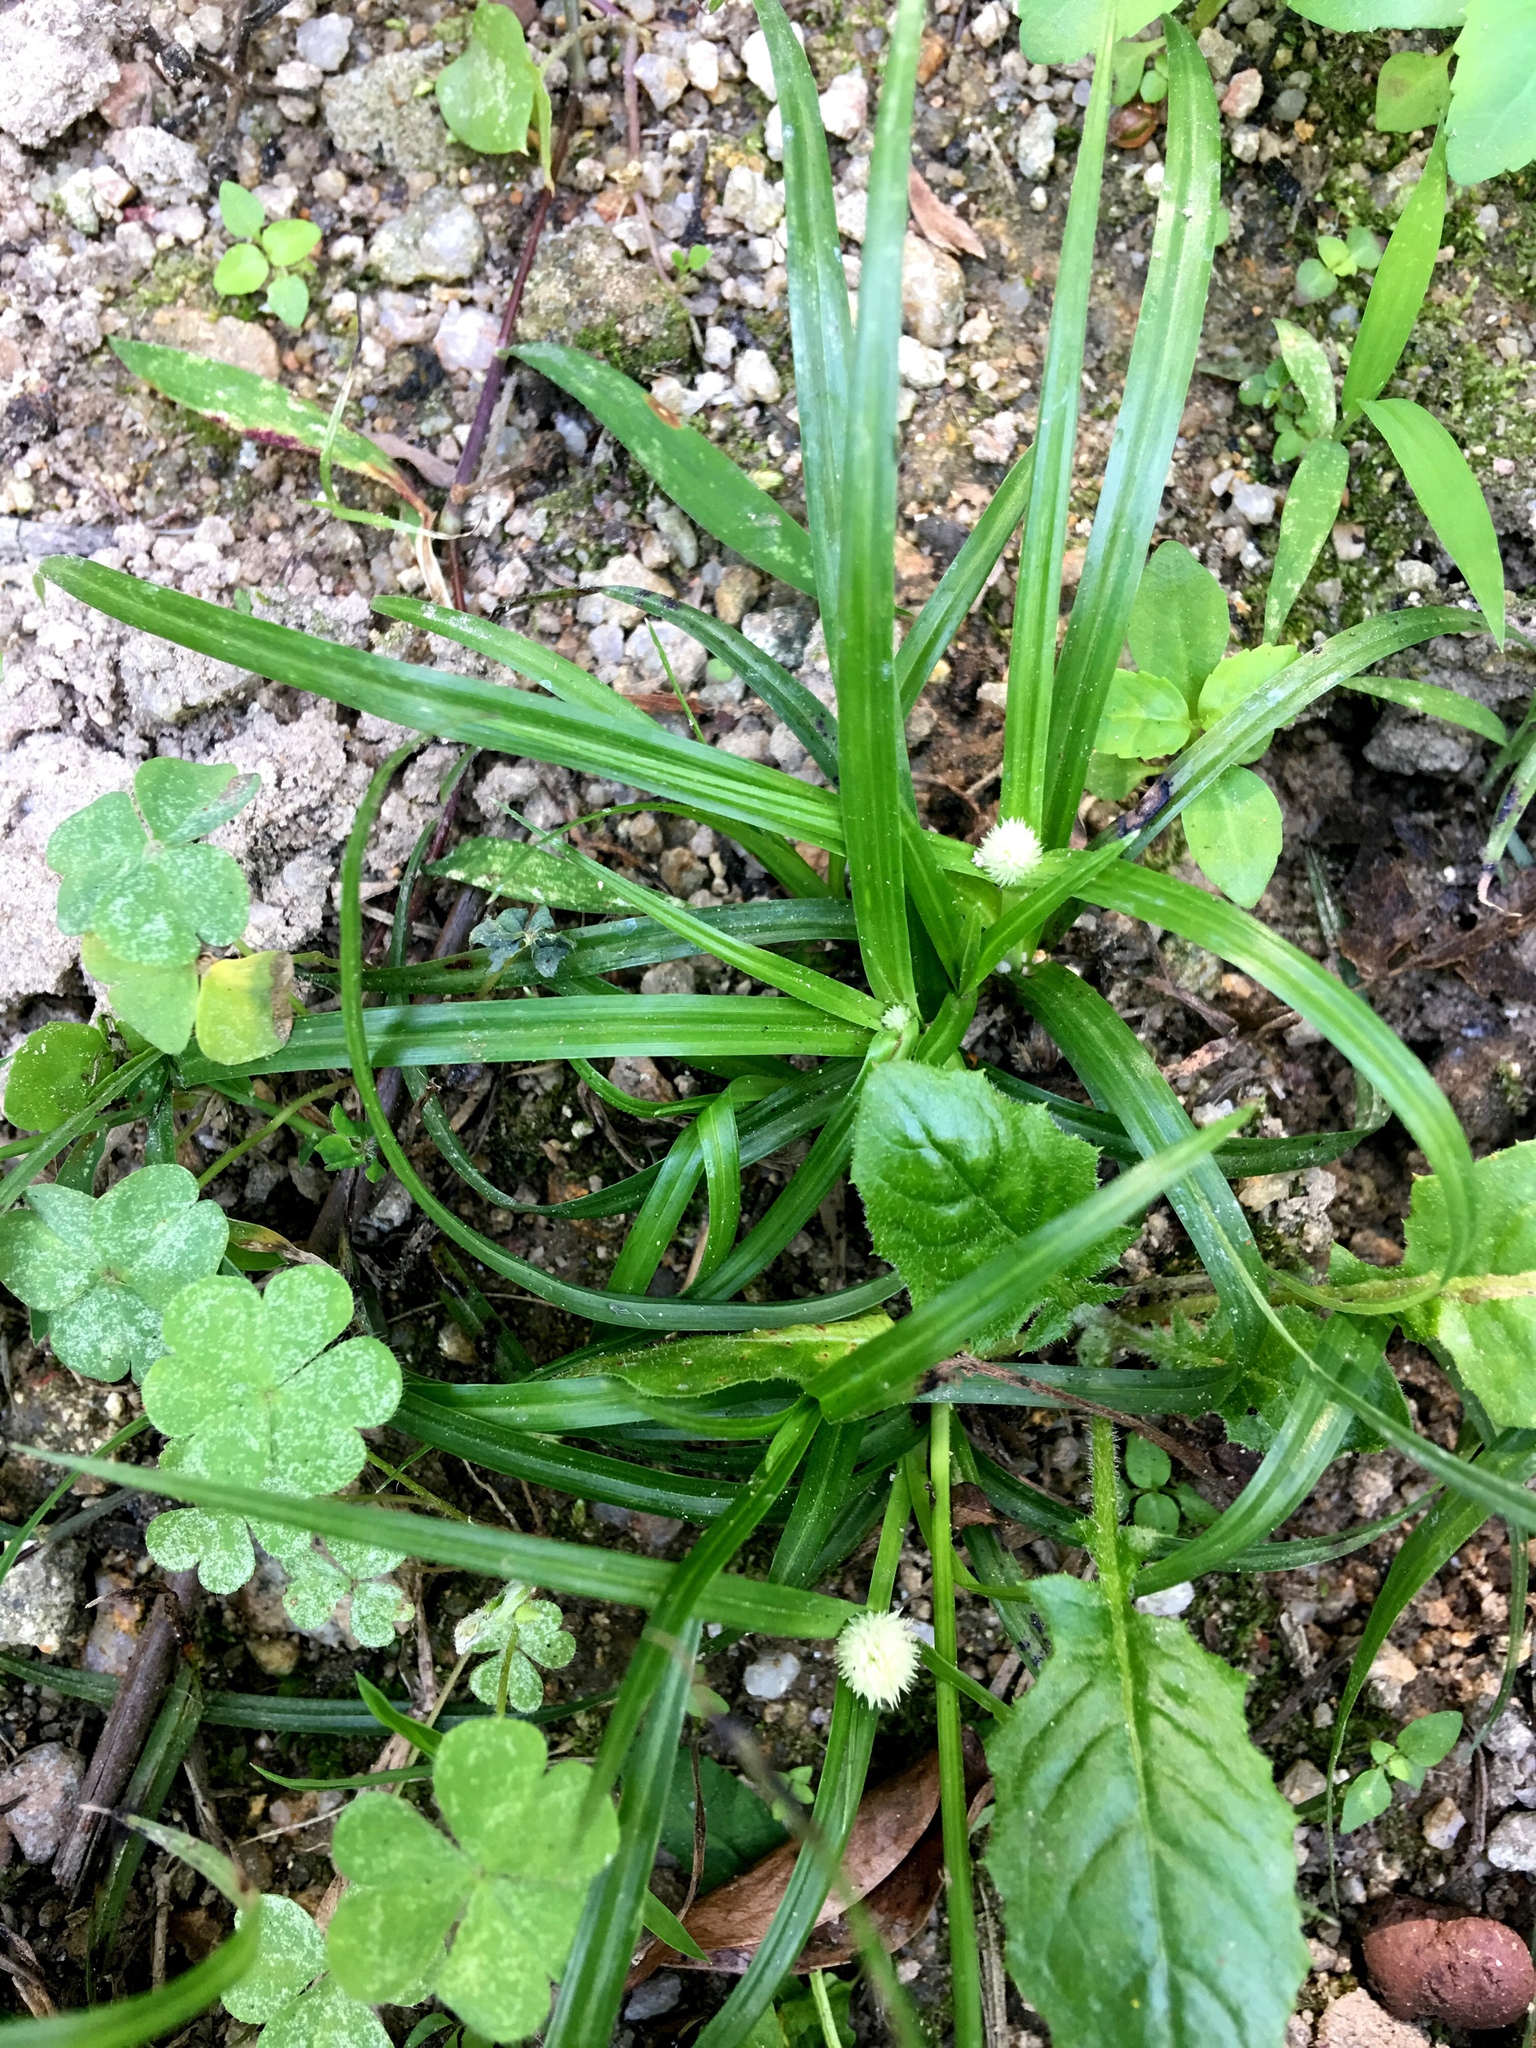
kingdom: Plantae
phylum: Tracheophyta
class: Liliopsida
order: Poales
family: Cyperaceae
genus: Cyperus
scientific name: Cyperus mindorensis
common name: Flatsedge
